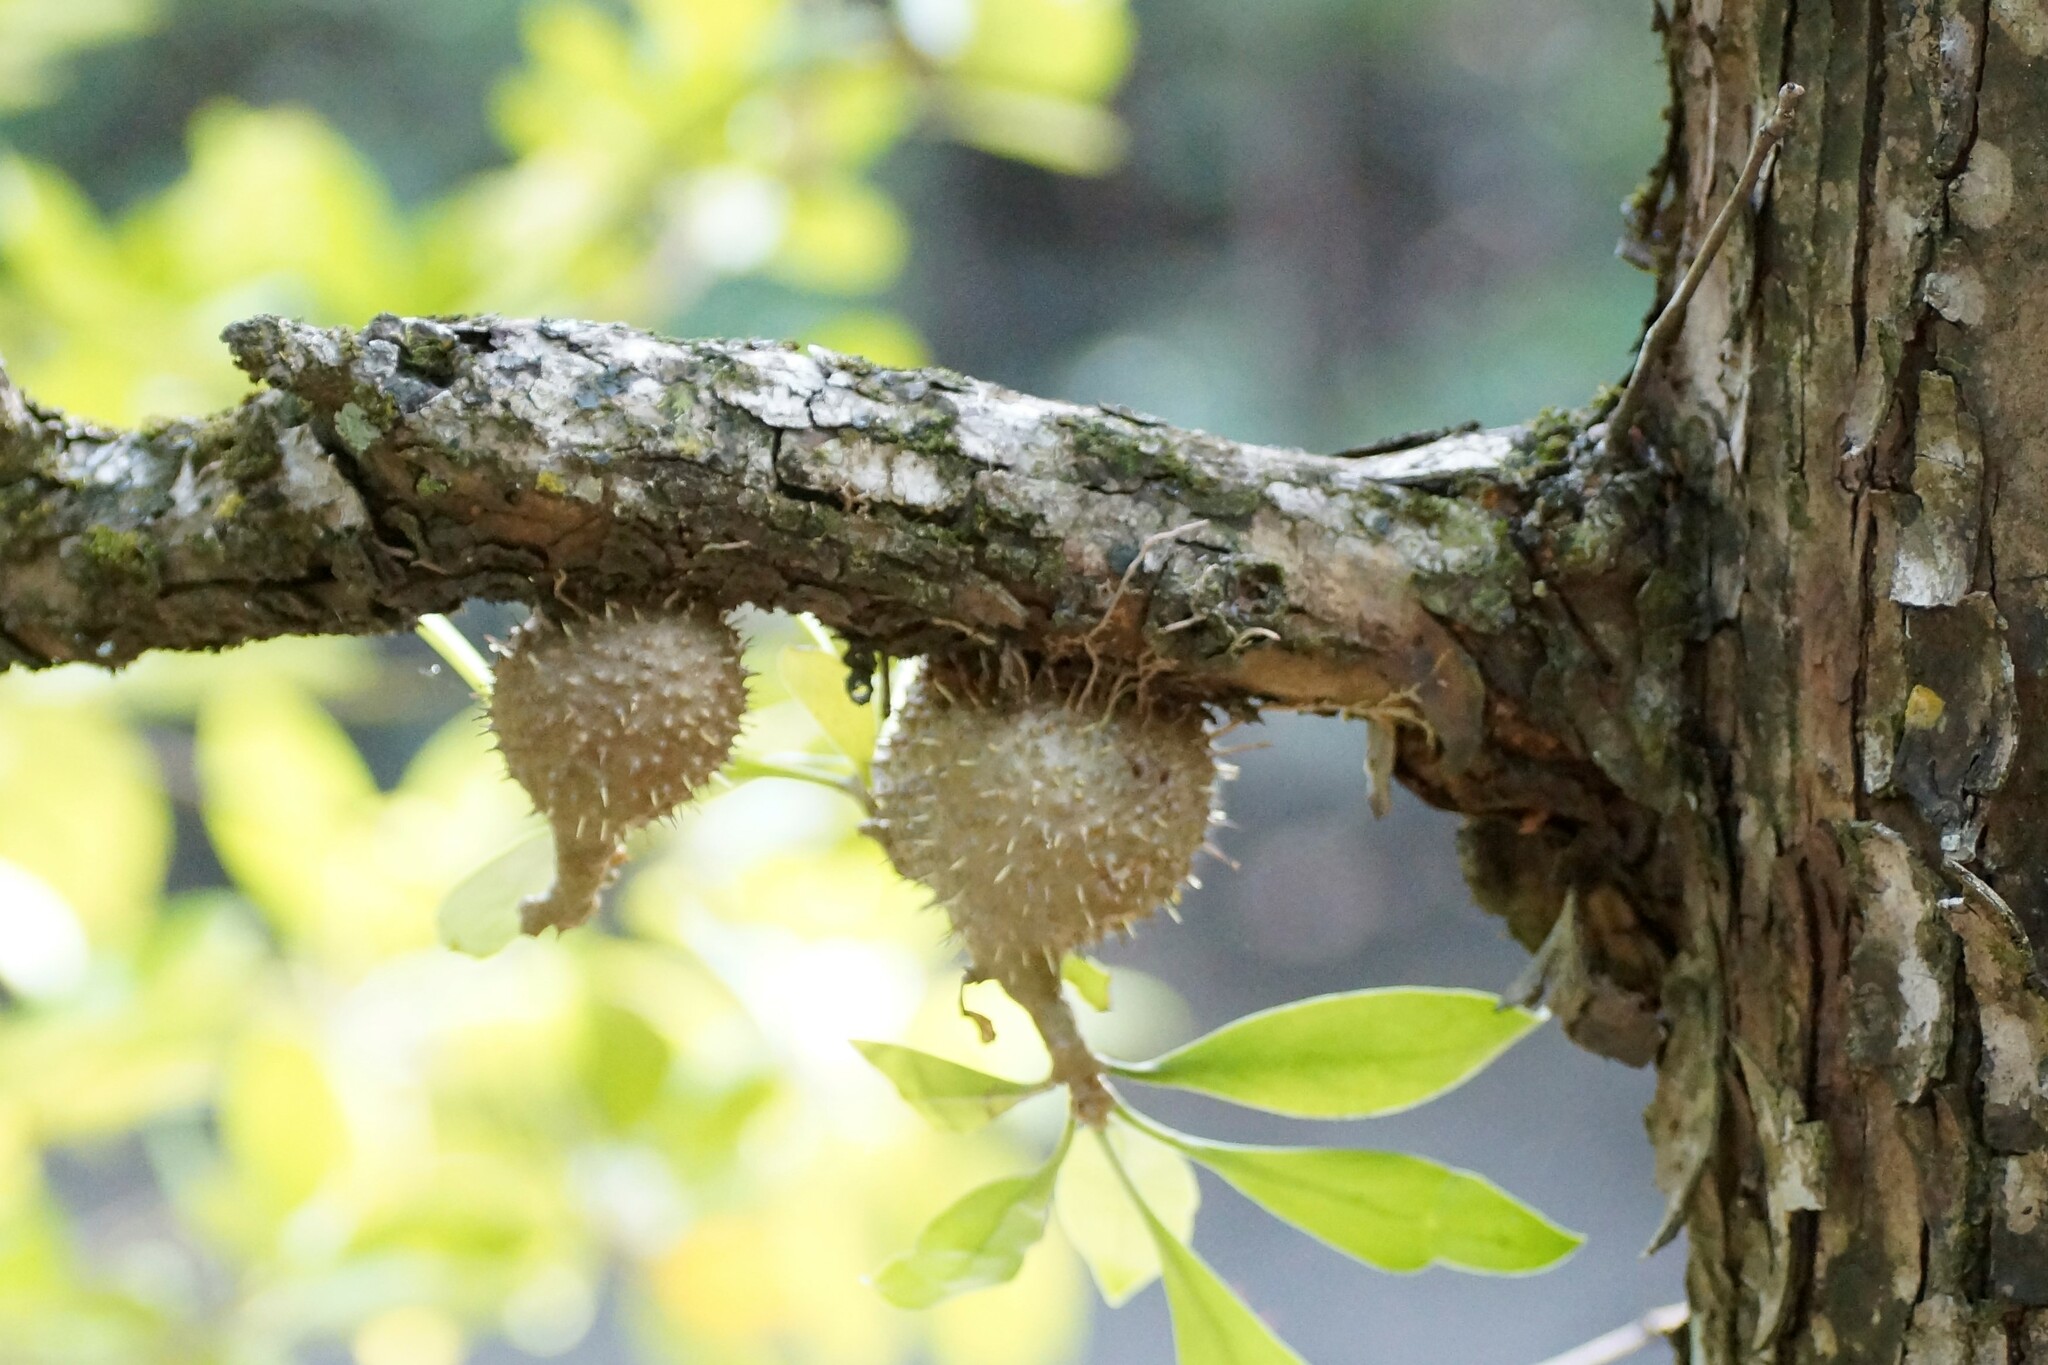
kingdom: Plantae
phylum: Tracheophyta
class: Magnoliopsida
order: Gentianales
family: Rubiaceae
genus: Myrmecodia
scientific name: Myrmecodia beccarii
